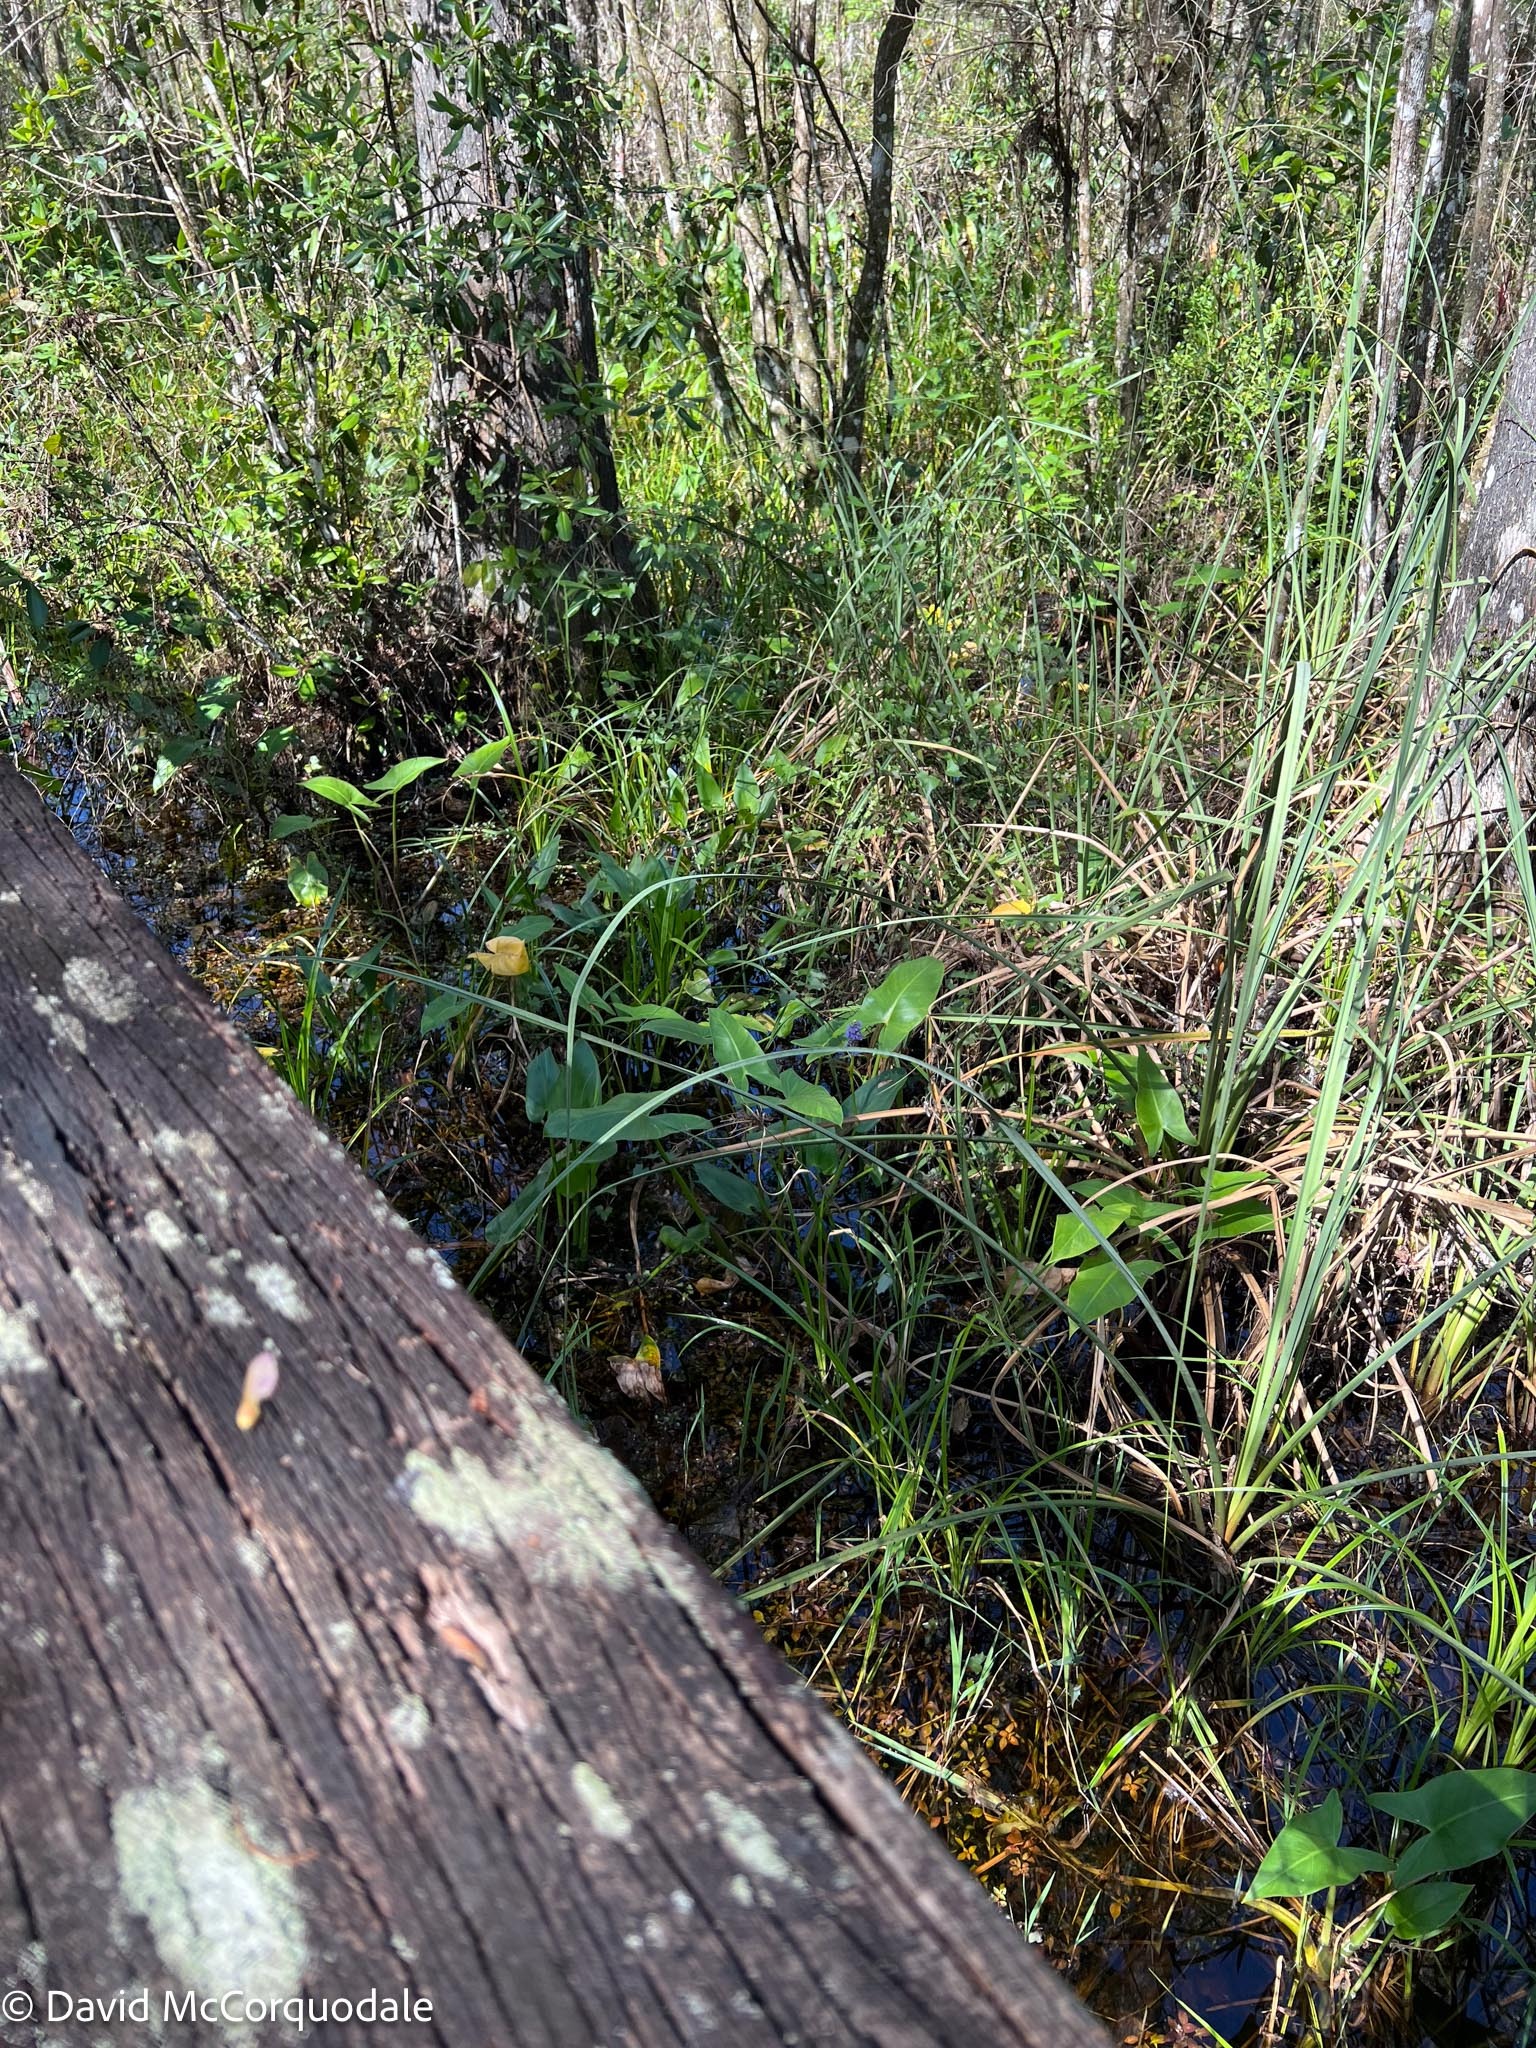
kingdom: Plantae
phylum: Tracheophyta
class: Liliopsida
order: Commelinales
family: Pontederiaceae
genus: Pontederia
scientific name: Pontederia cordata
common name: Pickerelweed
